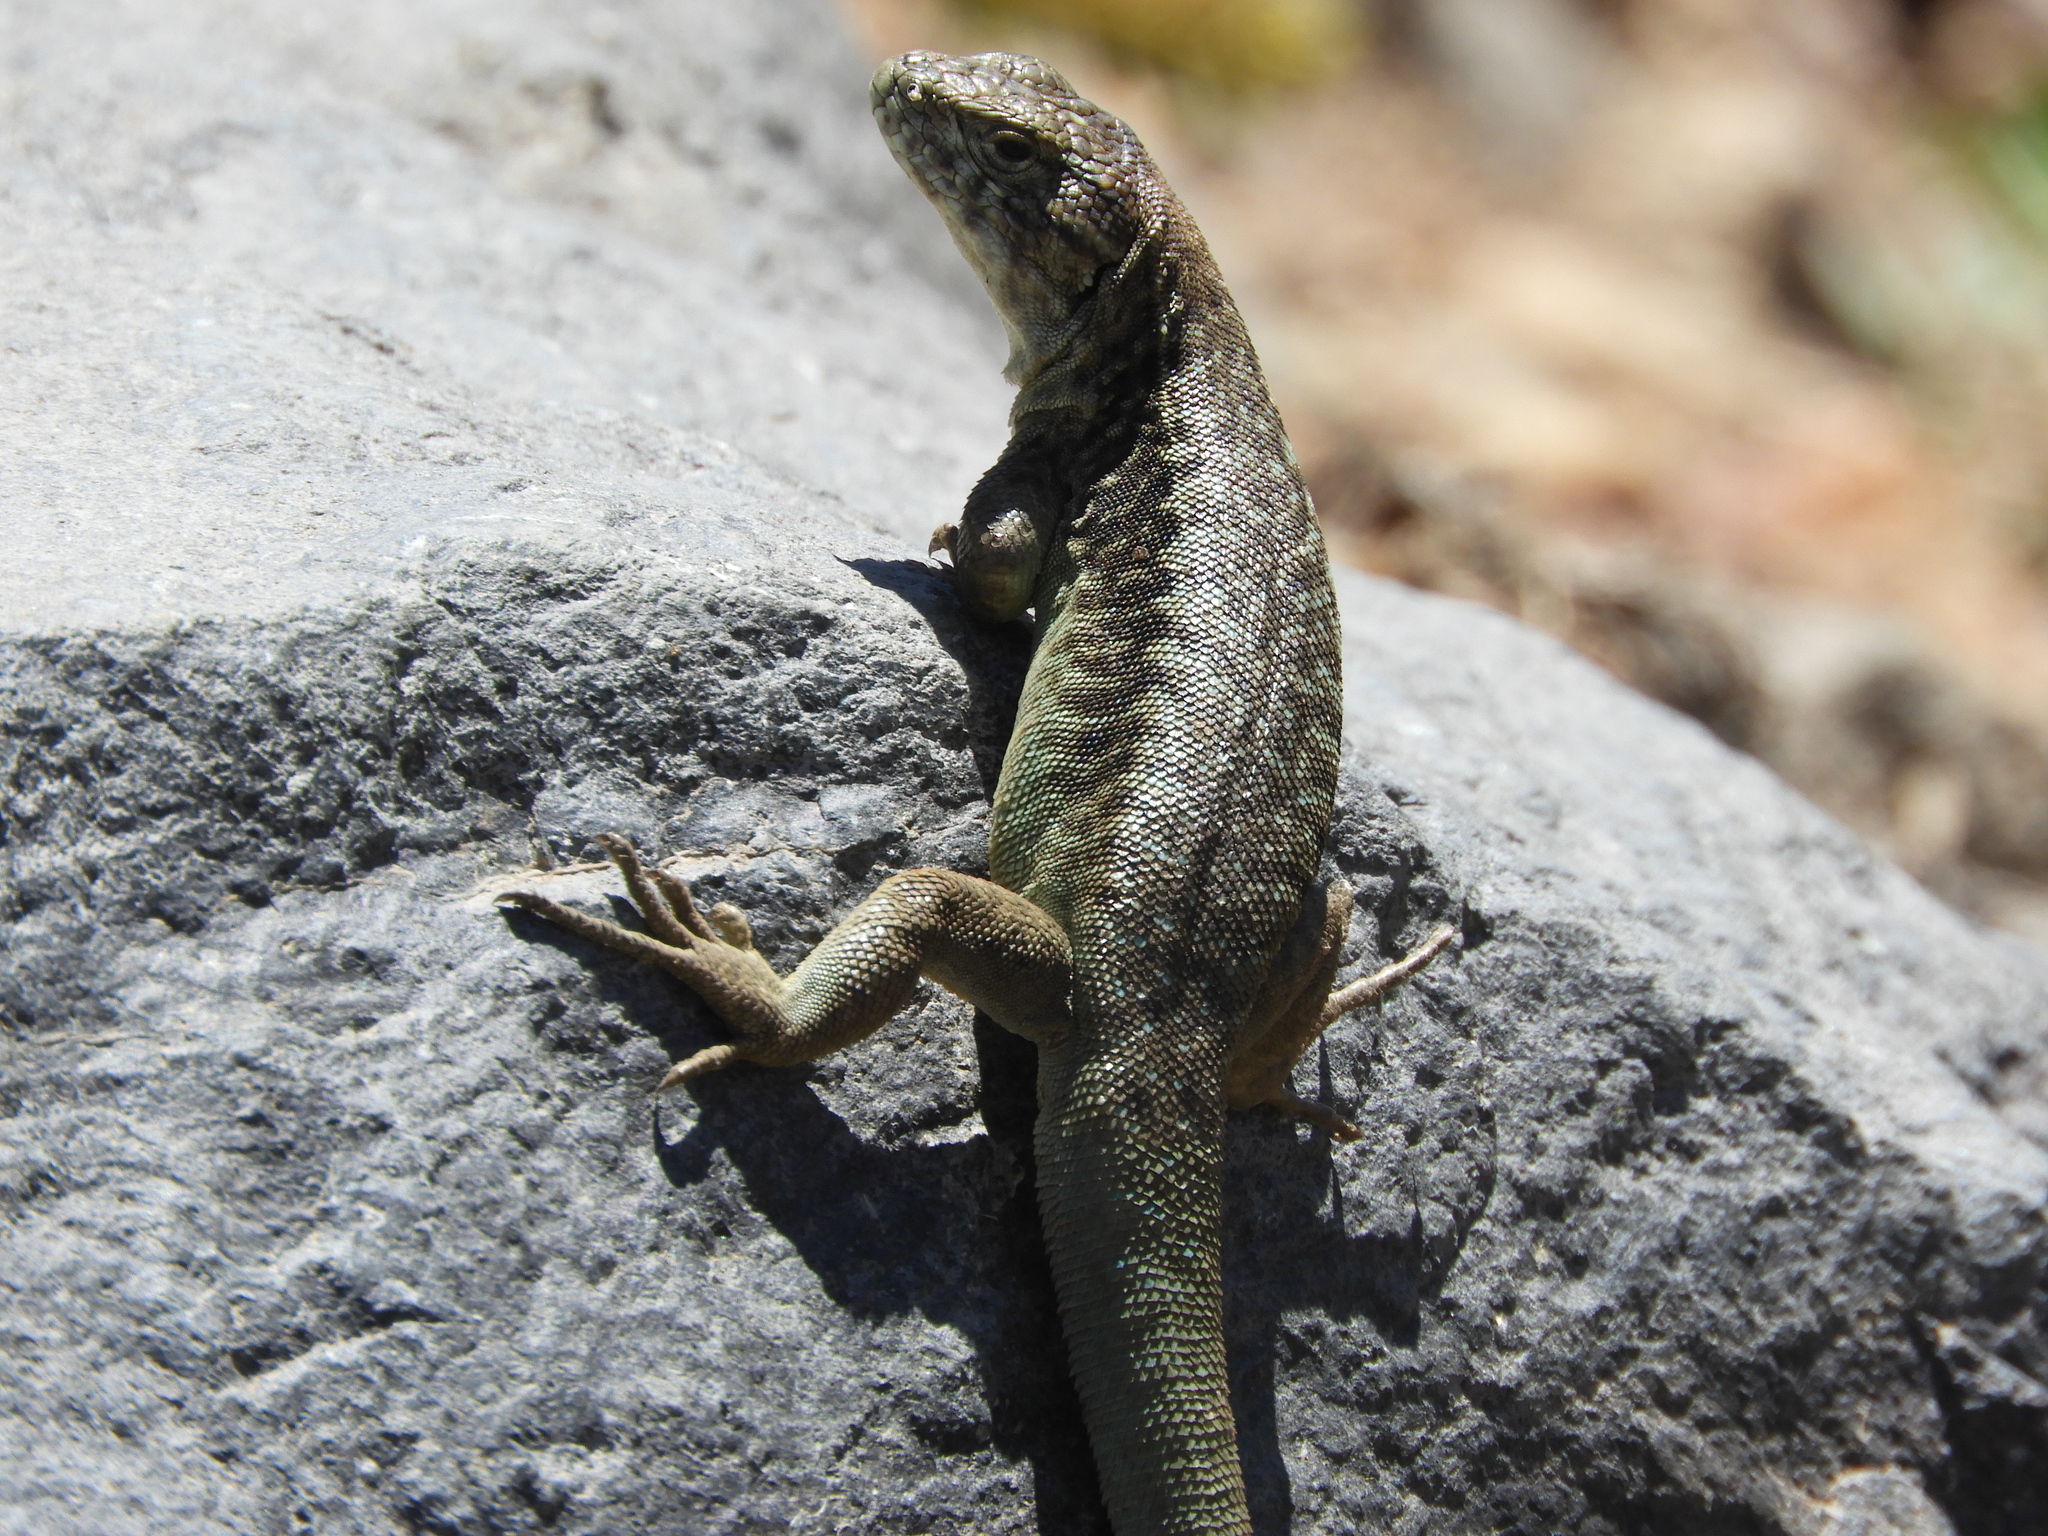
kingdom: Animalia
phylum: Chordata
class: Squamata
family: Liolaemidae
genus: Liolaemus
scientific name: Liolaemus chillanensis
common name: Peak tree iguana
